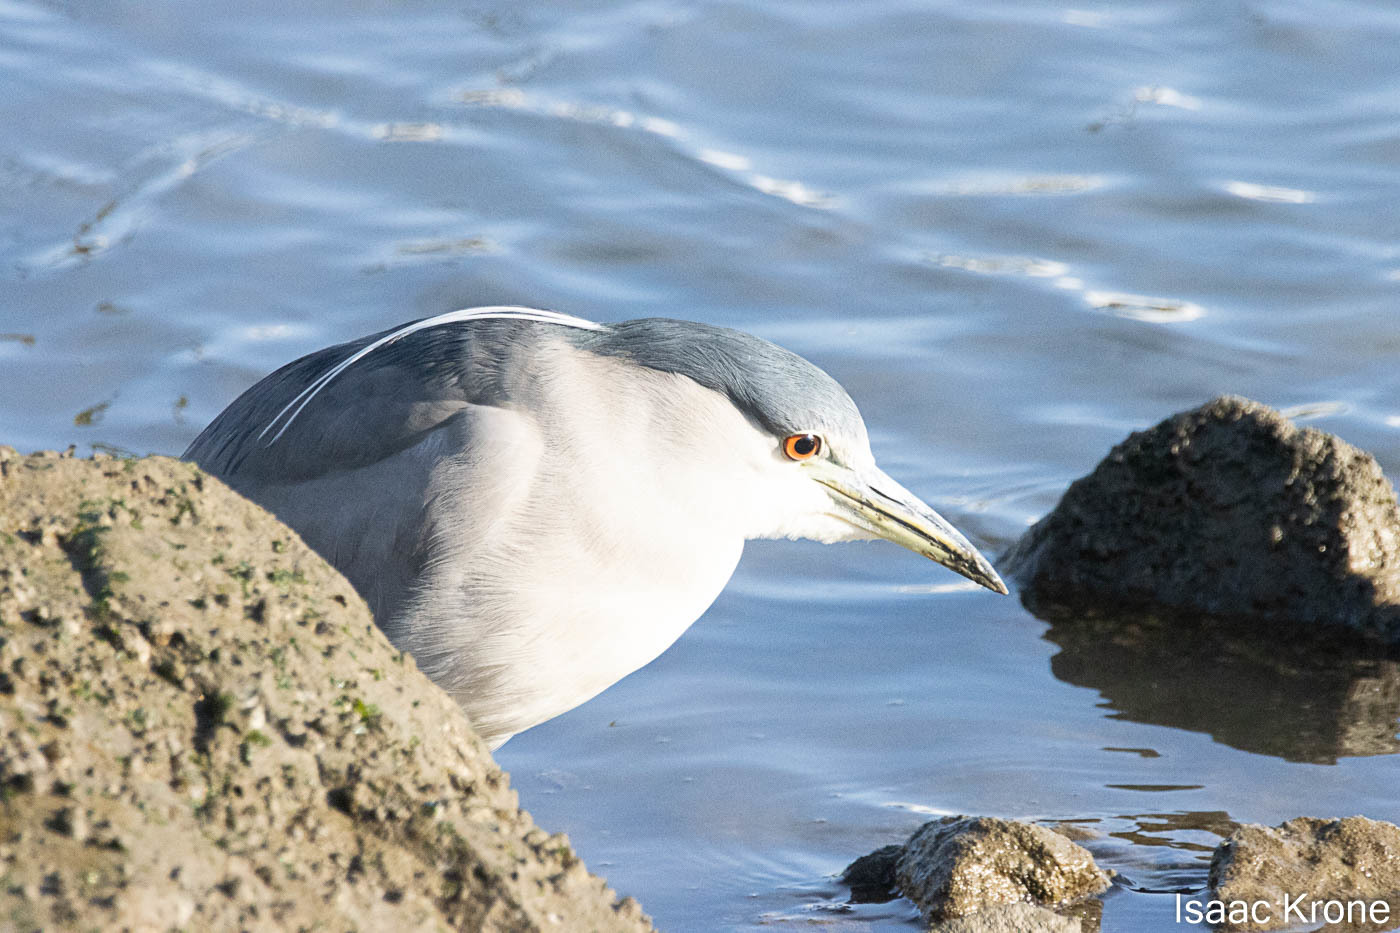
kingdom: Animalia
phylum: Chordata
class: Aves
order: Pelecaniformes
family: Ardeidae
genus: Nycticorax
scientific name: Nycticorax nycticorax
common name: Black-crowned night heron
